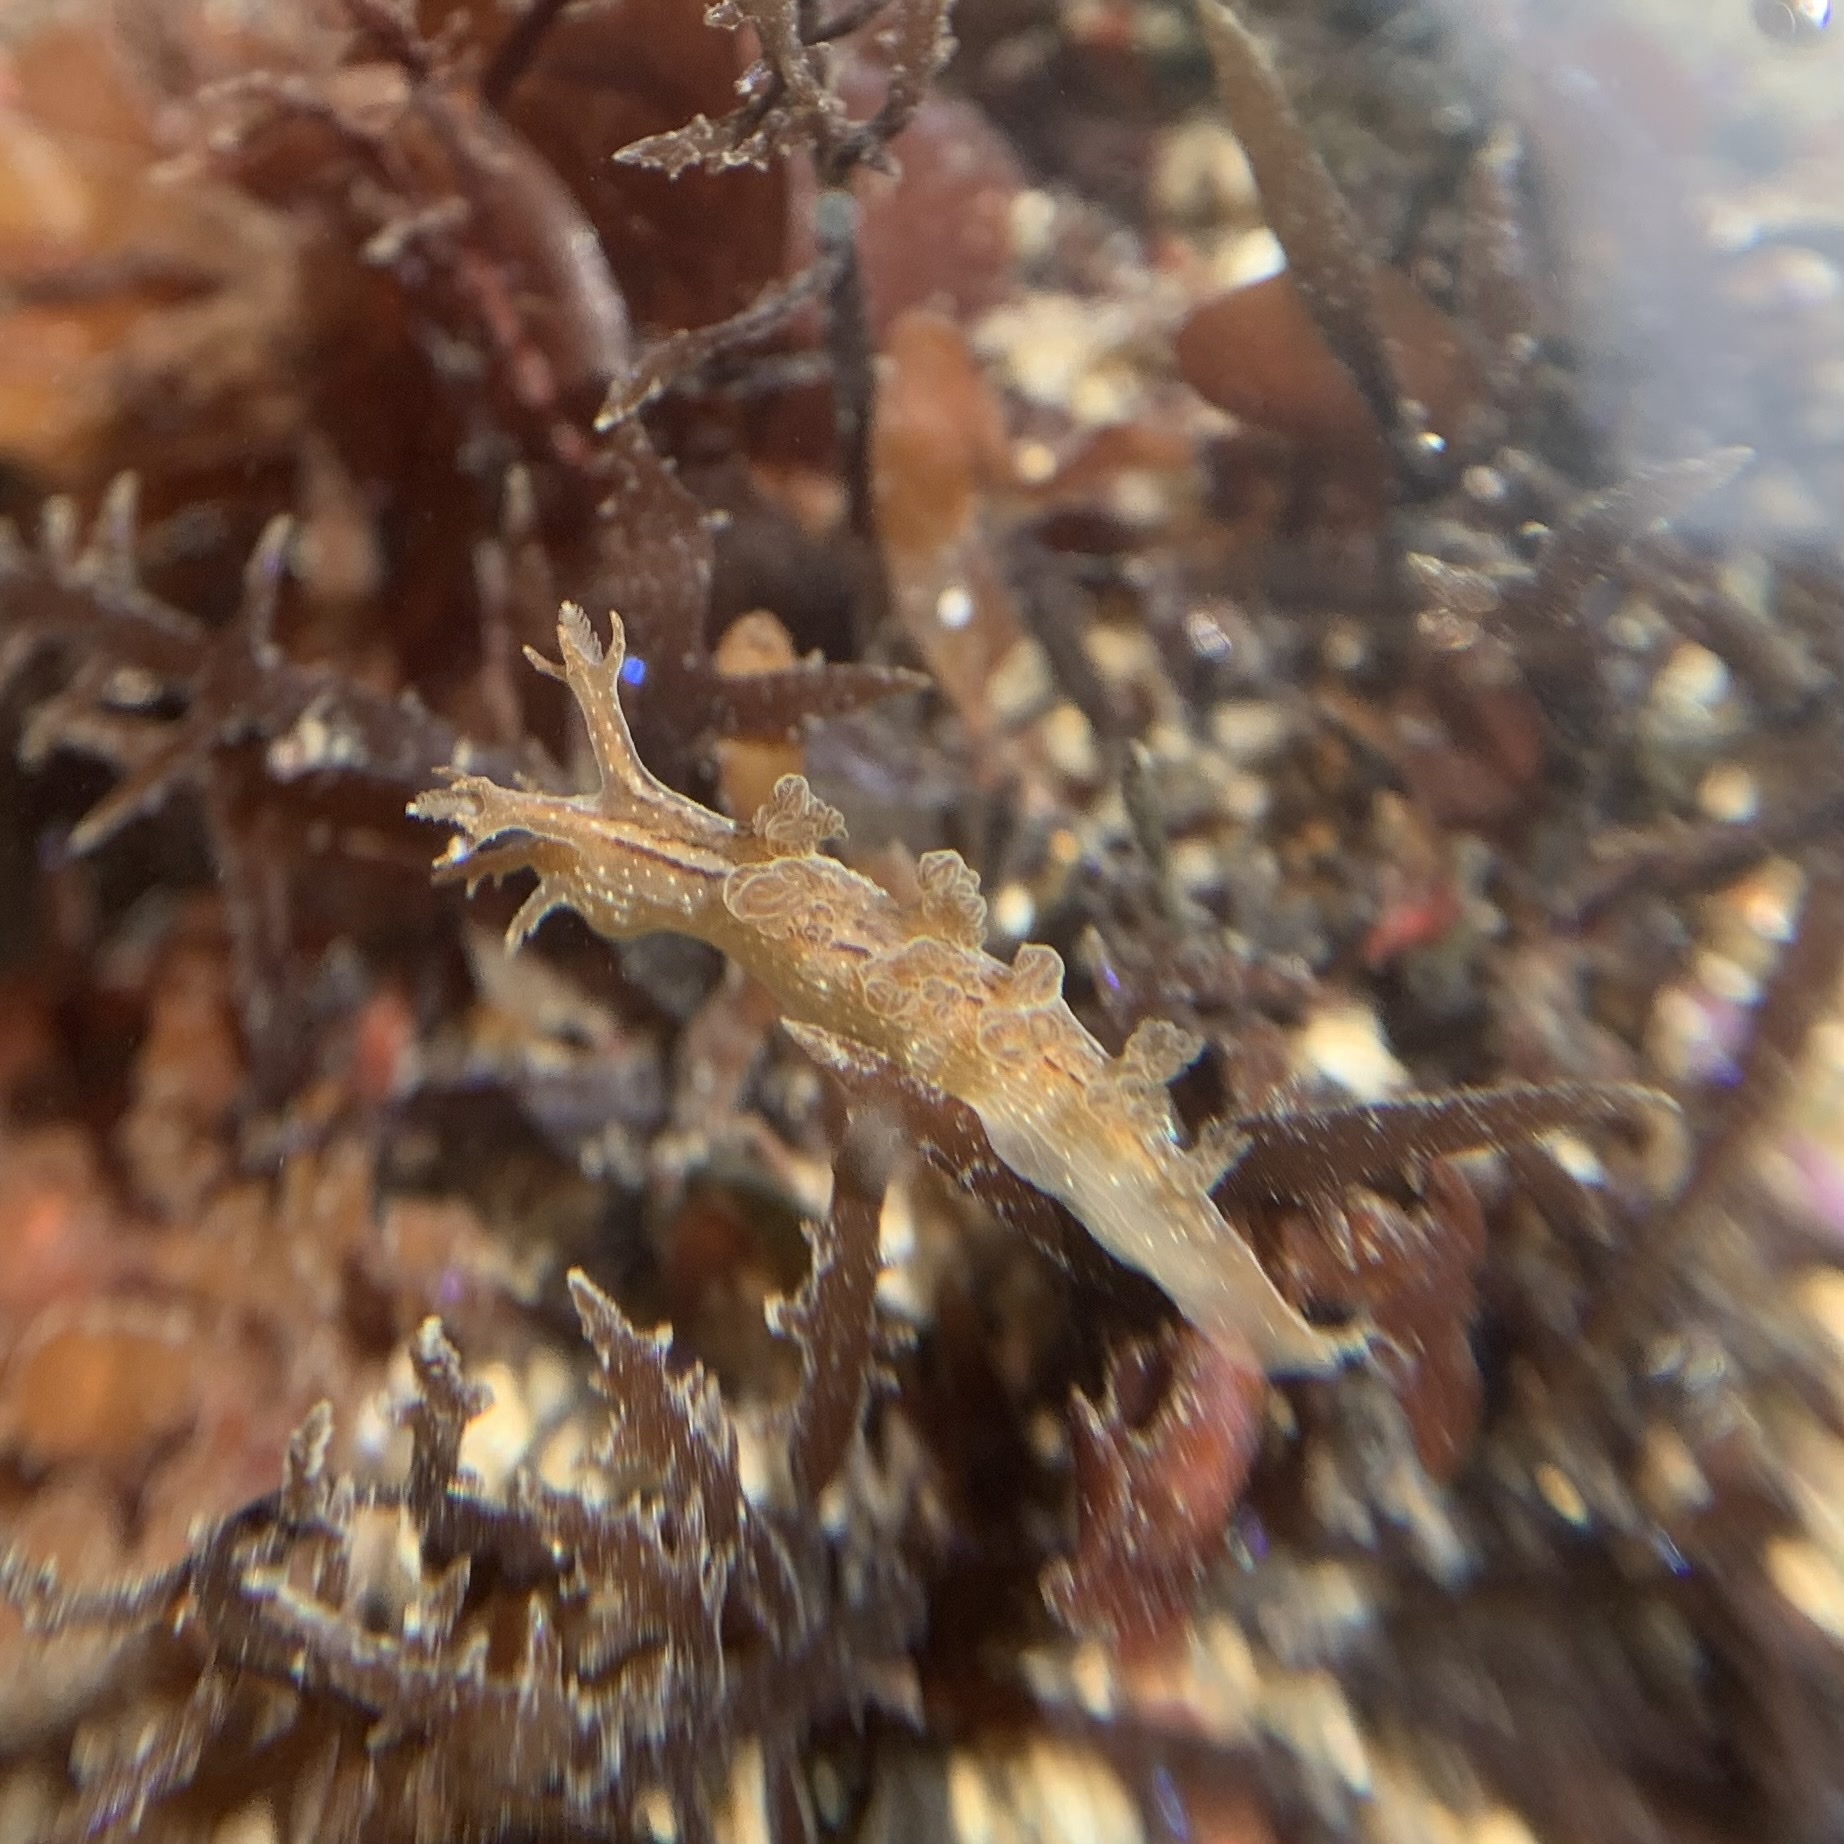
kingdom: Animalia
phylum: Mollusca
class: Gastropoda
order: Nudibranchia
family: Dendronotidae
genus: Dendronotus
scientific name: Dendronotus subramosus
